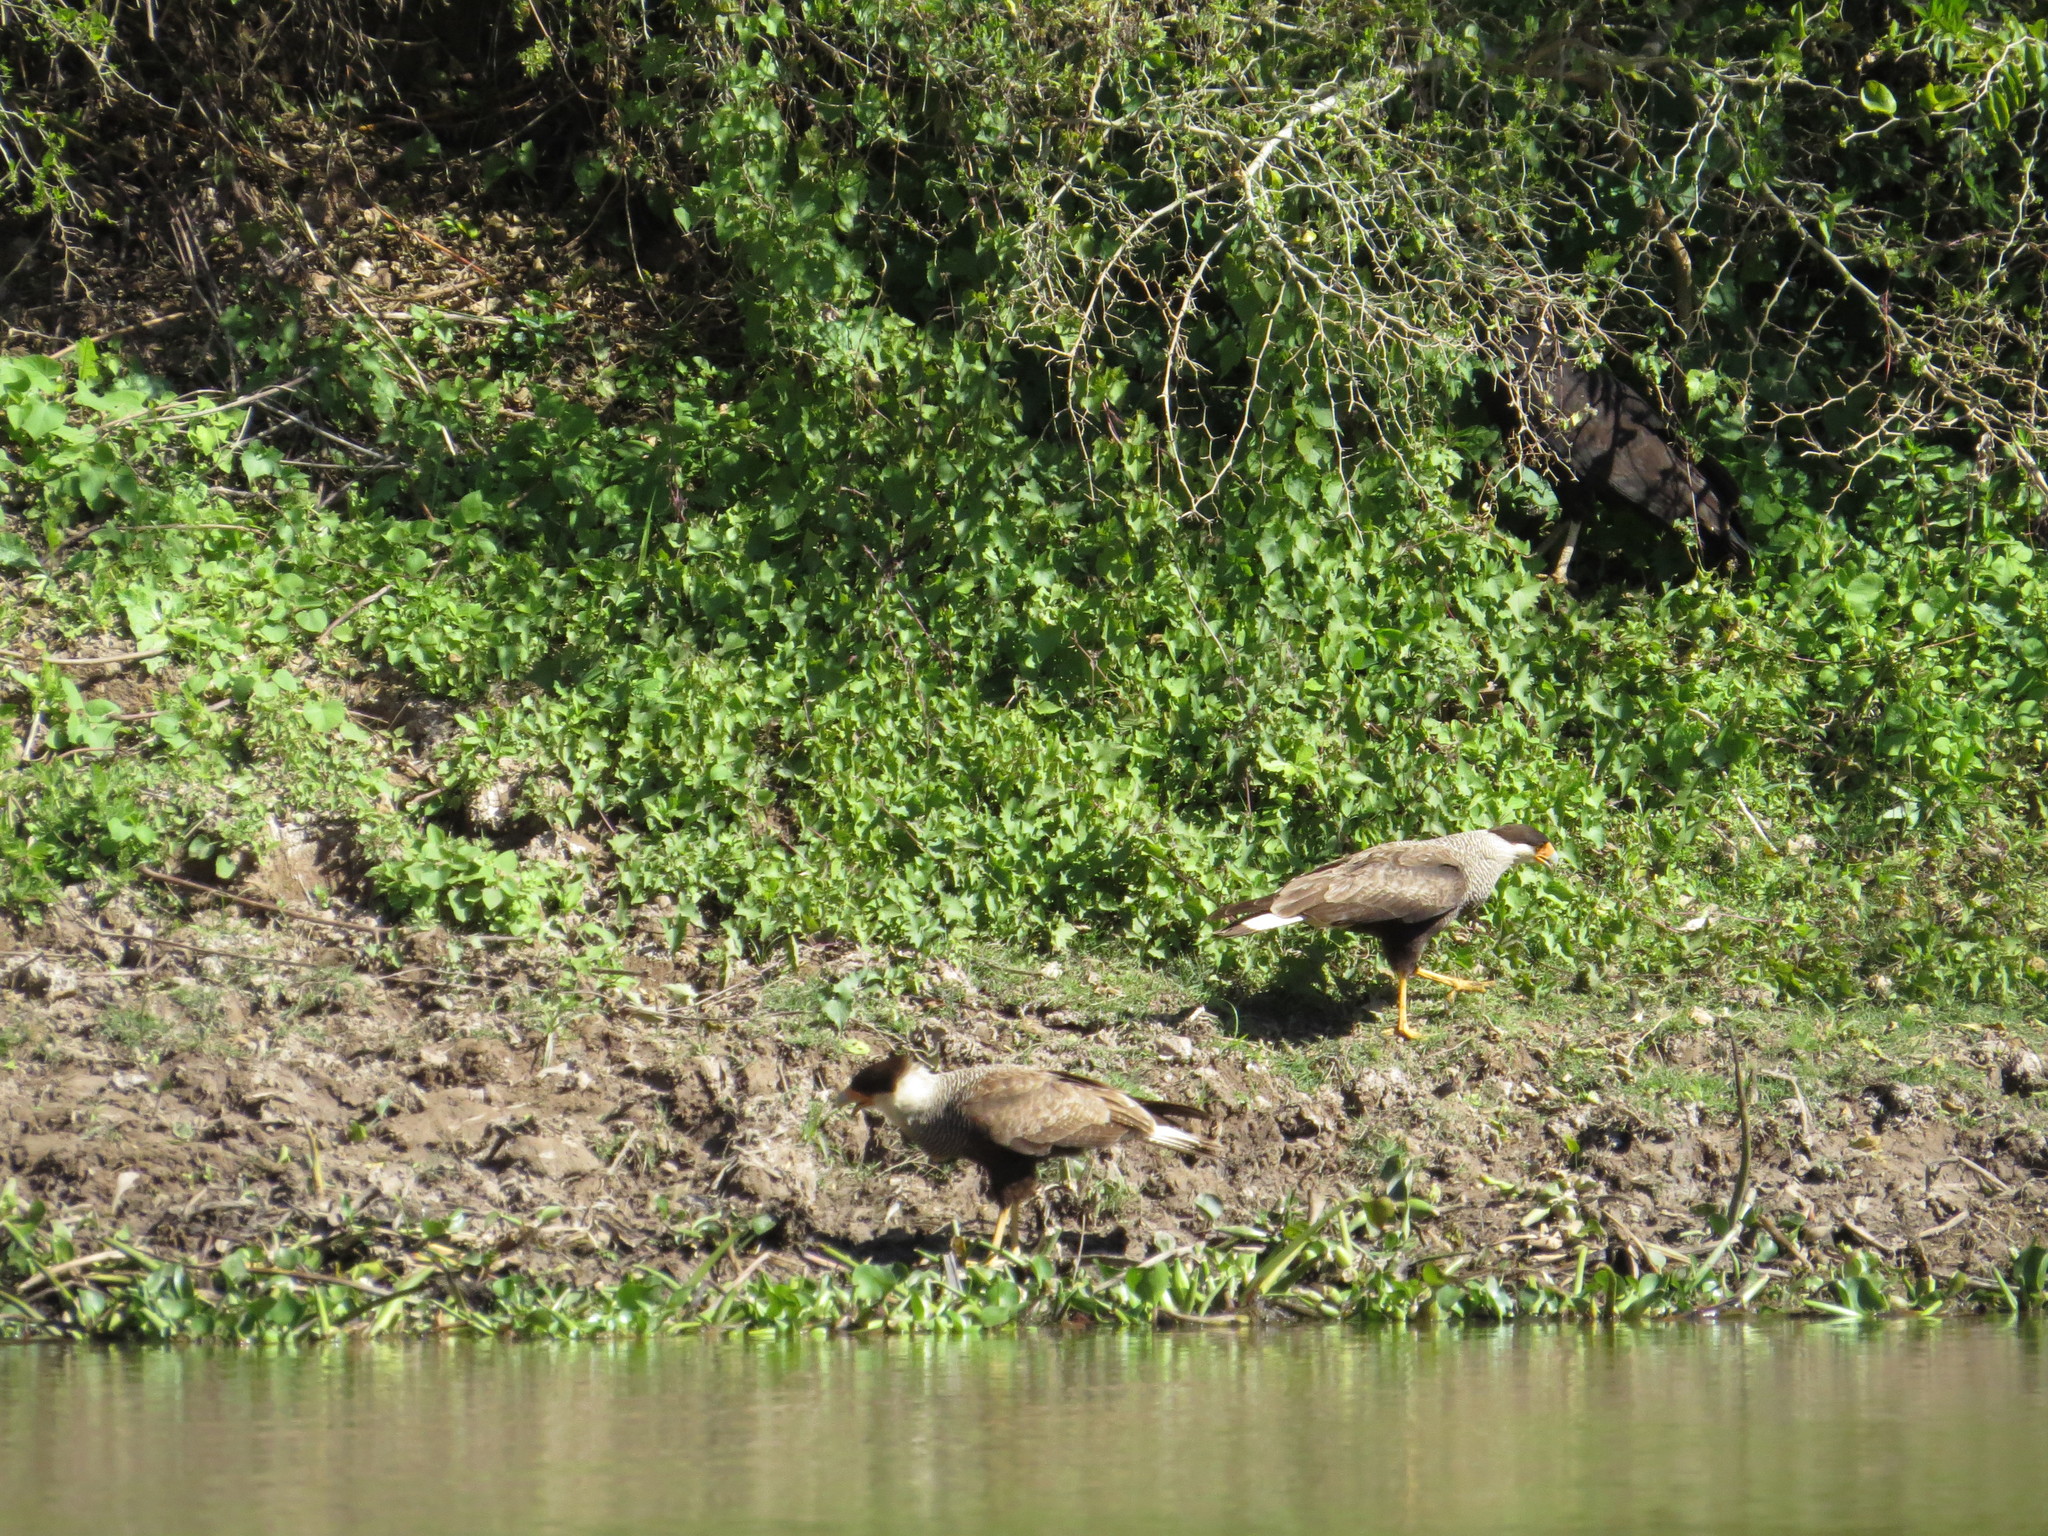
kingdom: Animalia
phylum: Chordata
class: Aves
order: Falconiformes
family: Falconidae
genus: Caracara
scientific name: Caracara plancus
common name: Southern caracara
